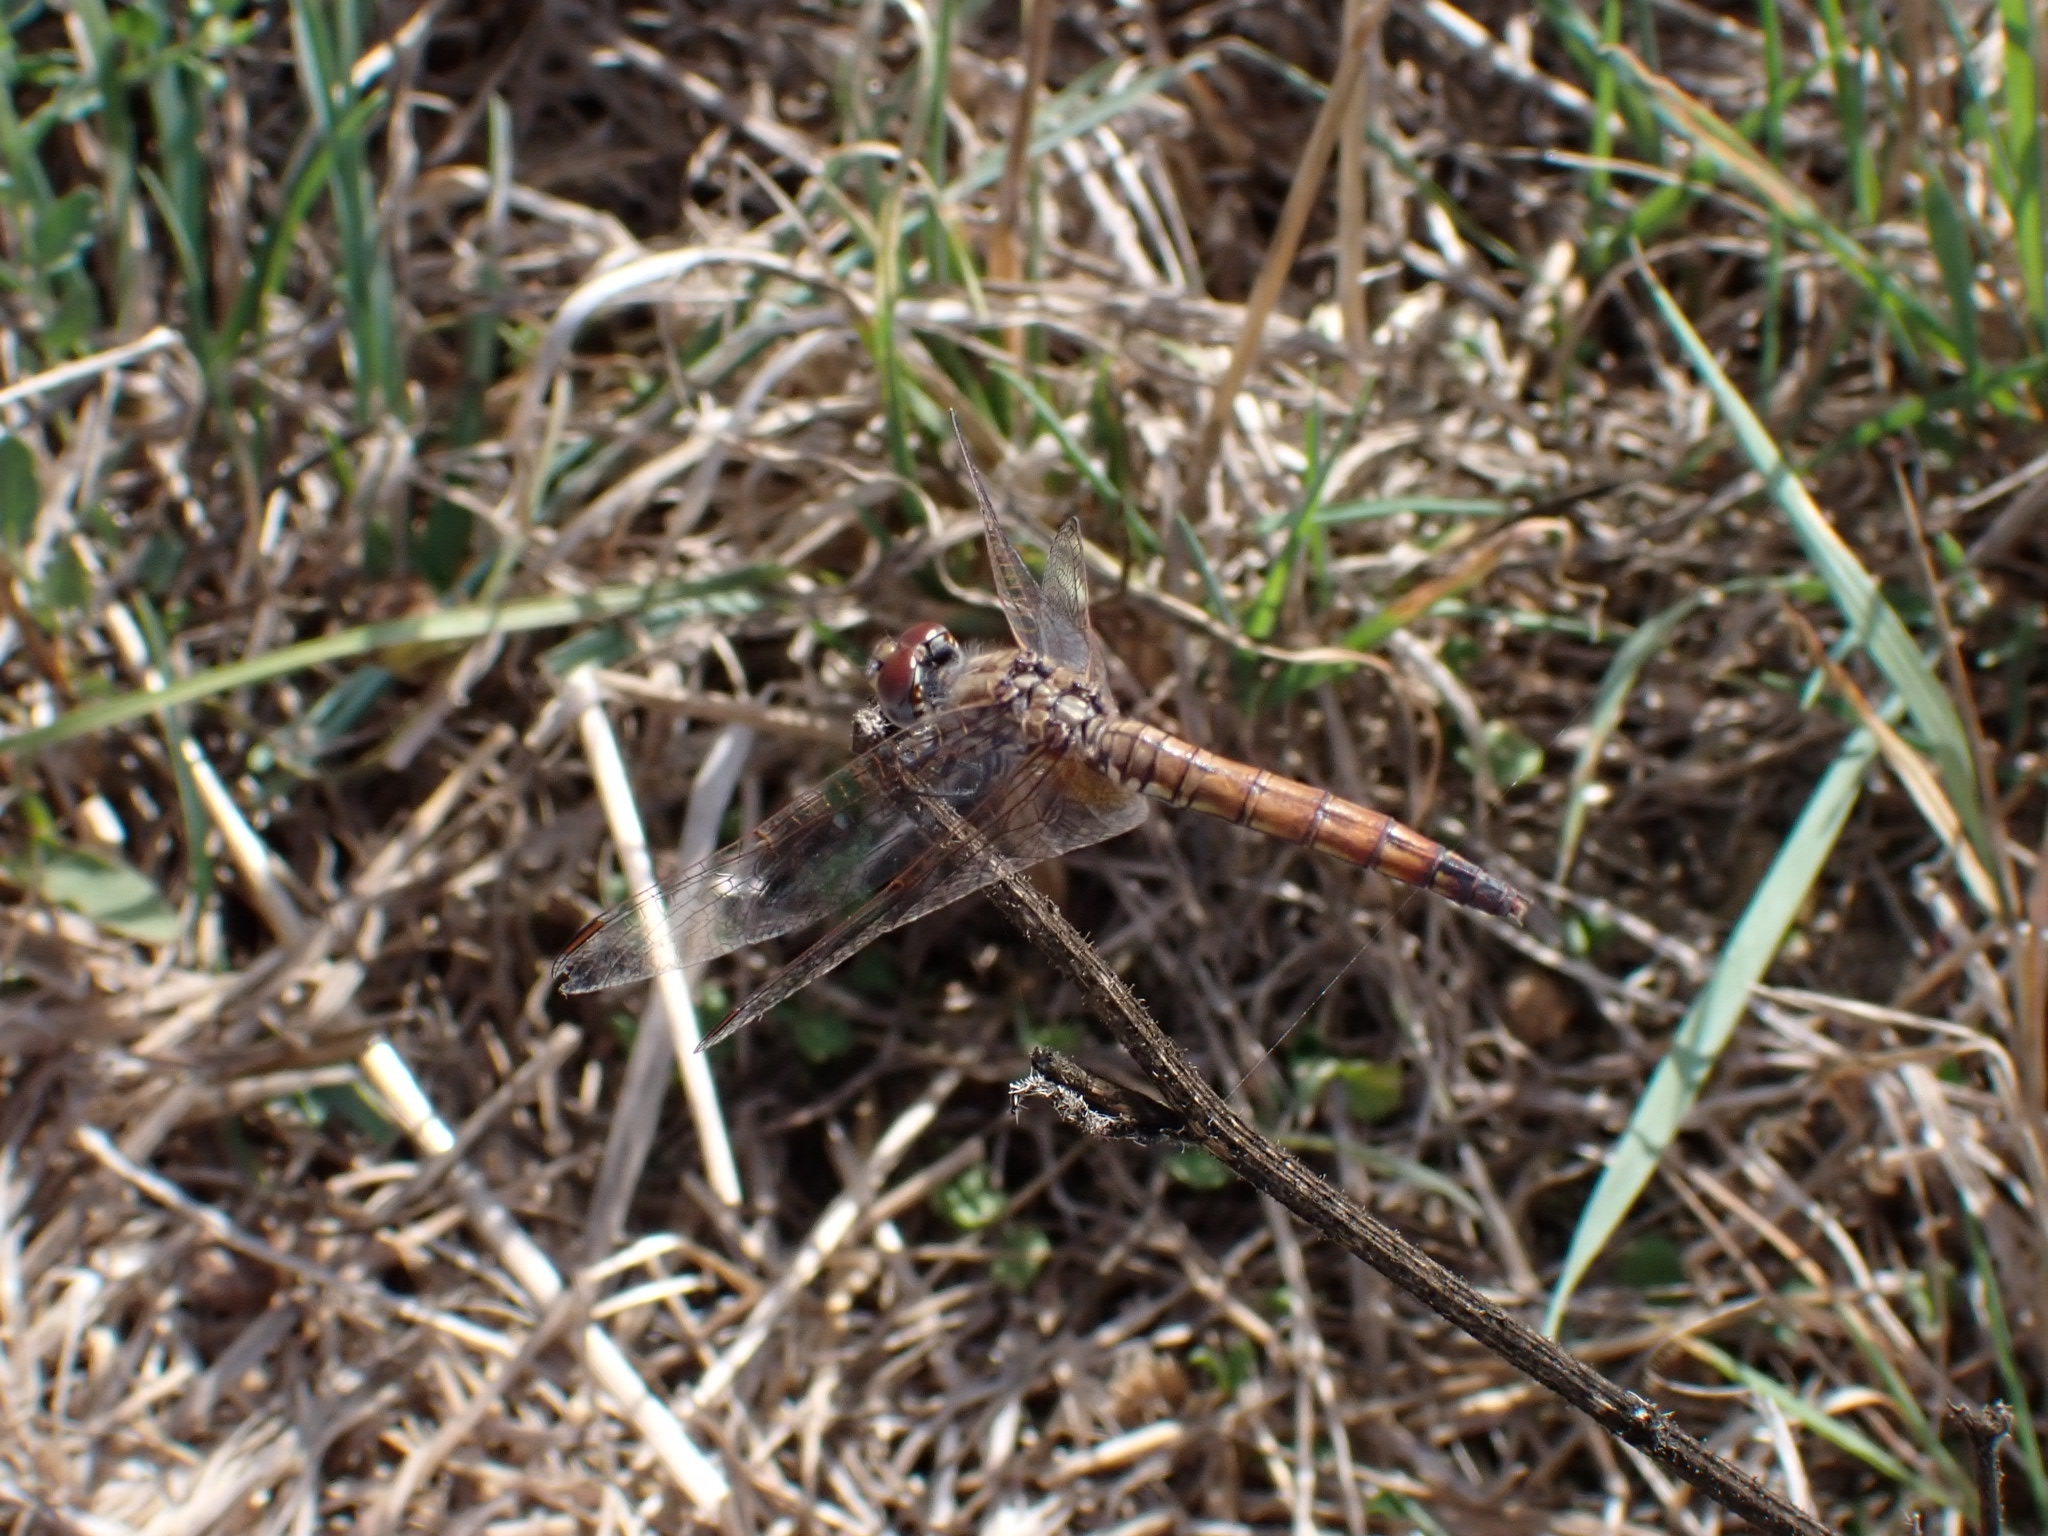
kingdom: Animalia
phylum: Arthropoda
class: Insecta
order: Odonata
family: Libellulidae
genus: Trithemis
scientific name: Trithemis annulata
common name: Violet dropwing
